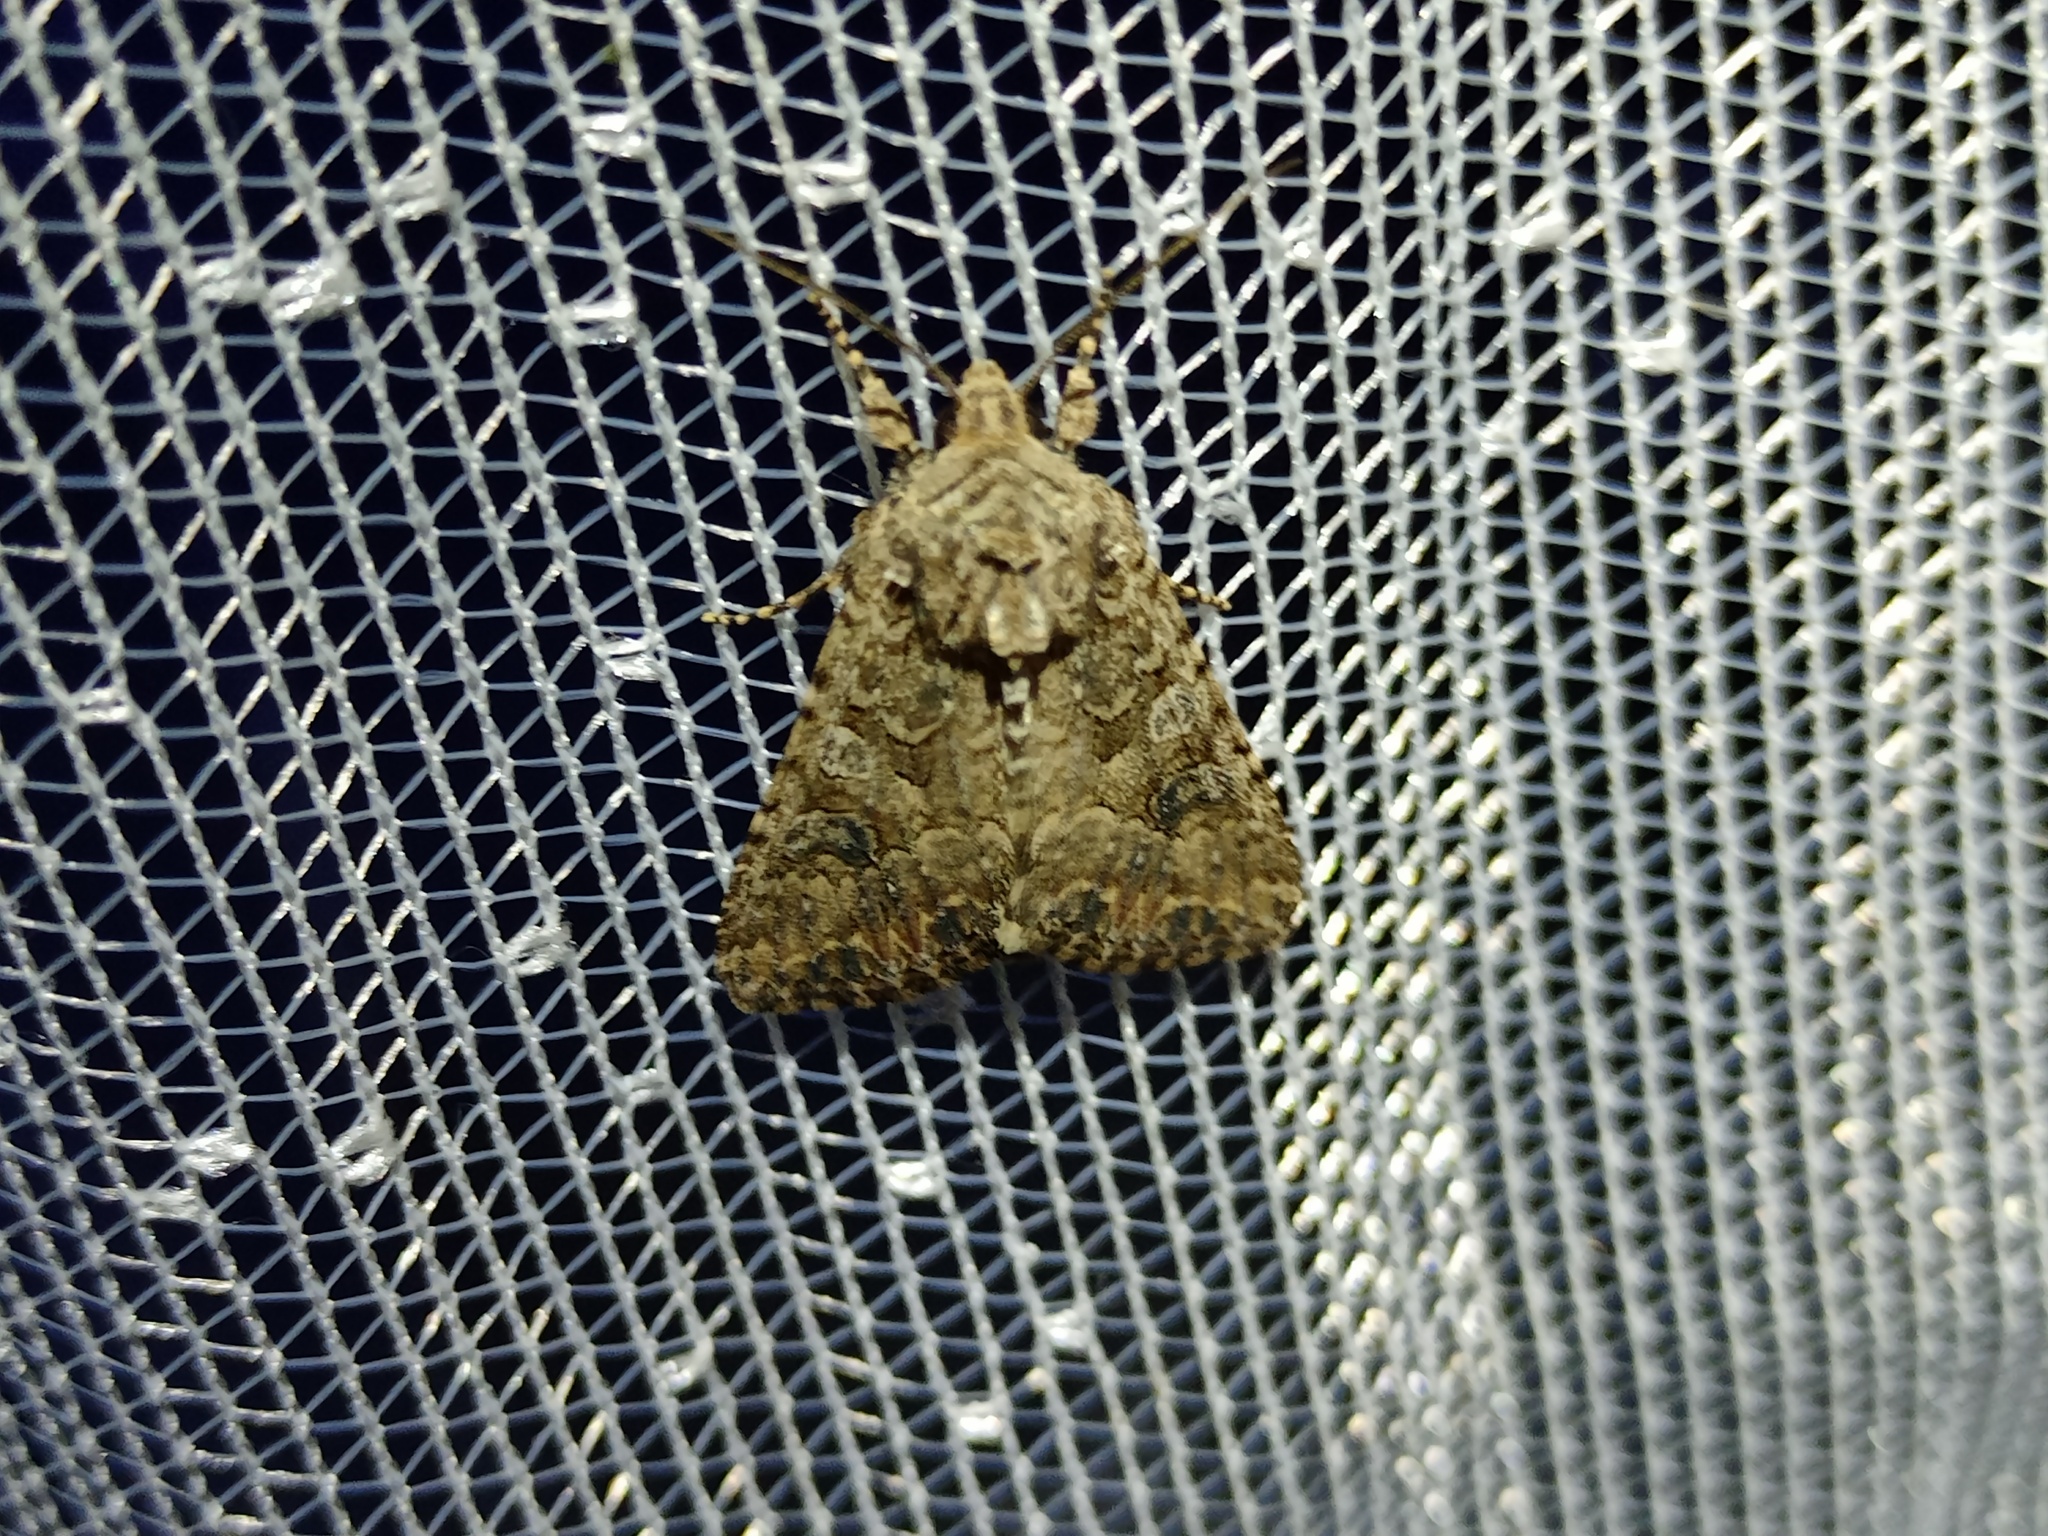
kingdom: Animalia
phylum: Arthropoda
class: Insecta
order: Lepidoptera
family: Noctuidae
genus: Anarta
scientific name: Anarta trifolii
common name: Clover cutworm moth
